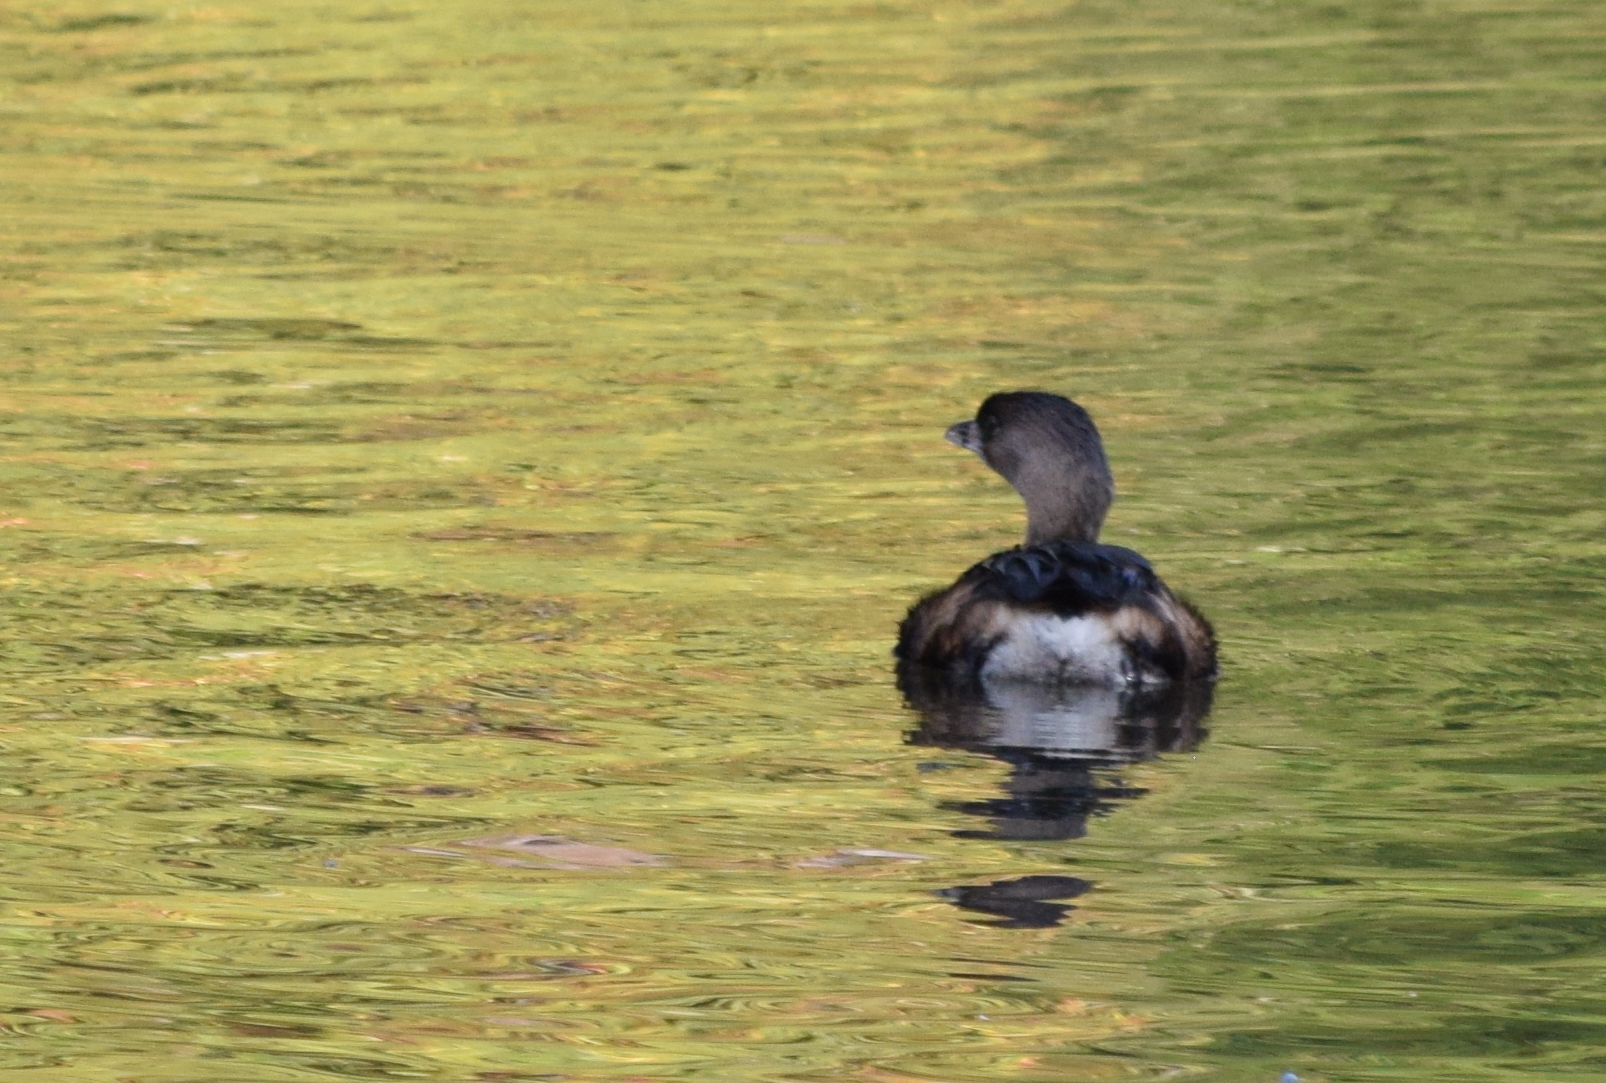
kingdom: Animalia
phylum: Chordata
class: Aves
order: Podicipediformes
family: Podicipedidae
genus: Podilymbus
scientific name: Podilymbus podiceps
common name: Pied-billed grebe
